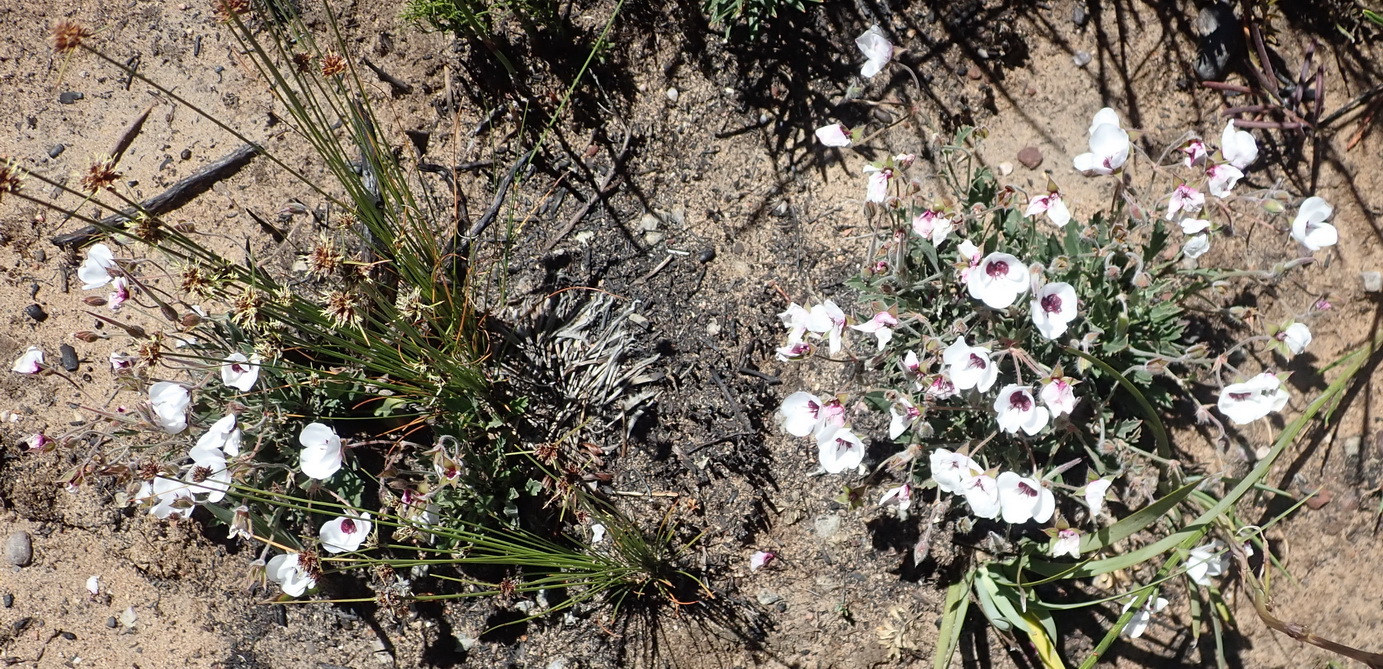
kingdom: Plantae
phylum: Tracheophyta
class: Magnoliopsida
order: Geraniales
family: Geraniaceae
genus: Pelargonium
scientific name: Pelargonium tricolor
